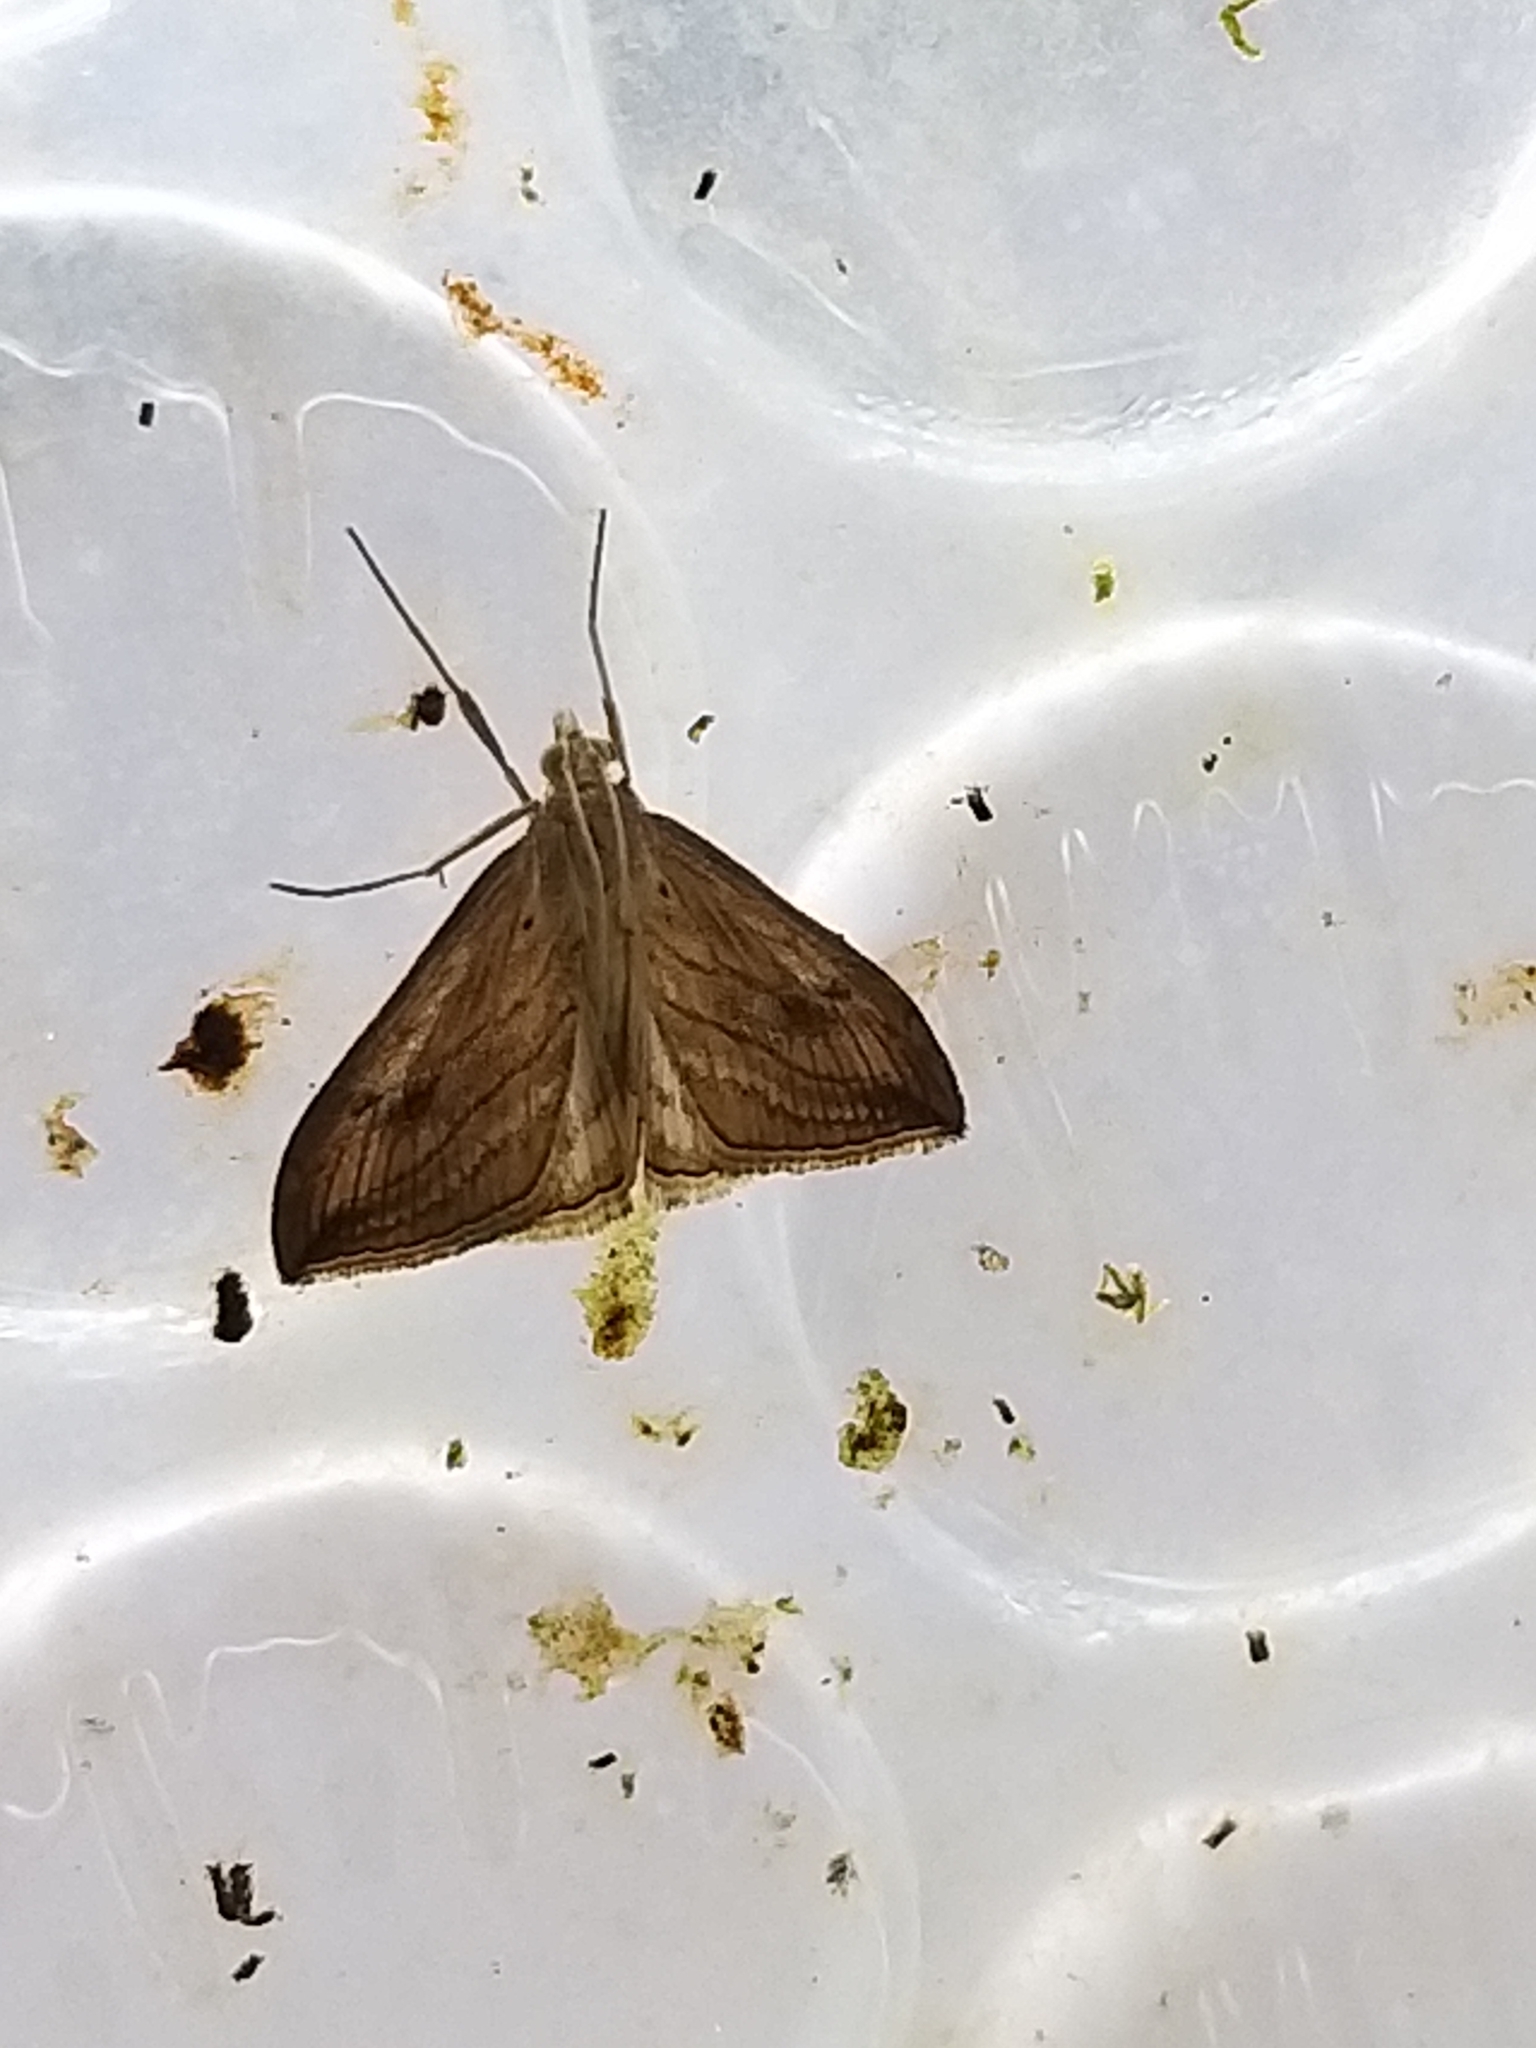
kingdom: Animalia
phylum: Arthropoda
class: Insecta
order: Lepidoptera
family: Crambidae
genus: Evergestis
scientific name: Evergestis forficalis
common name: Garden pebble
